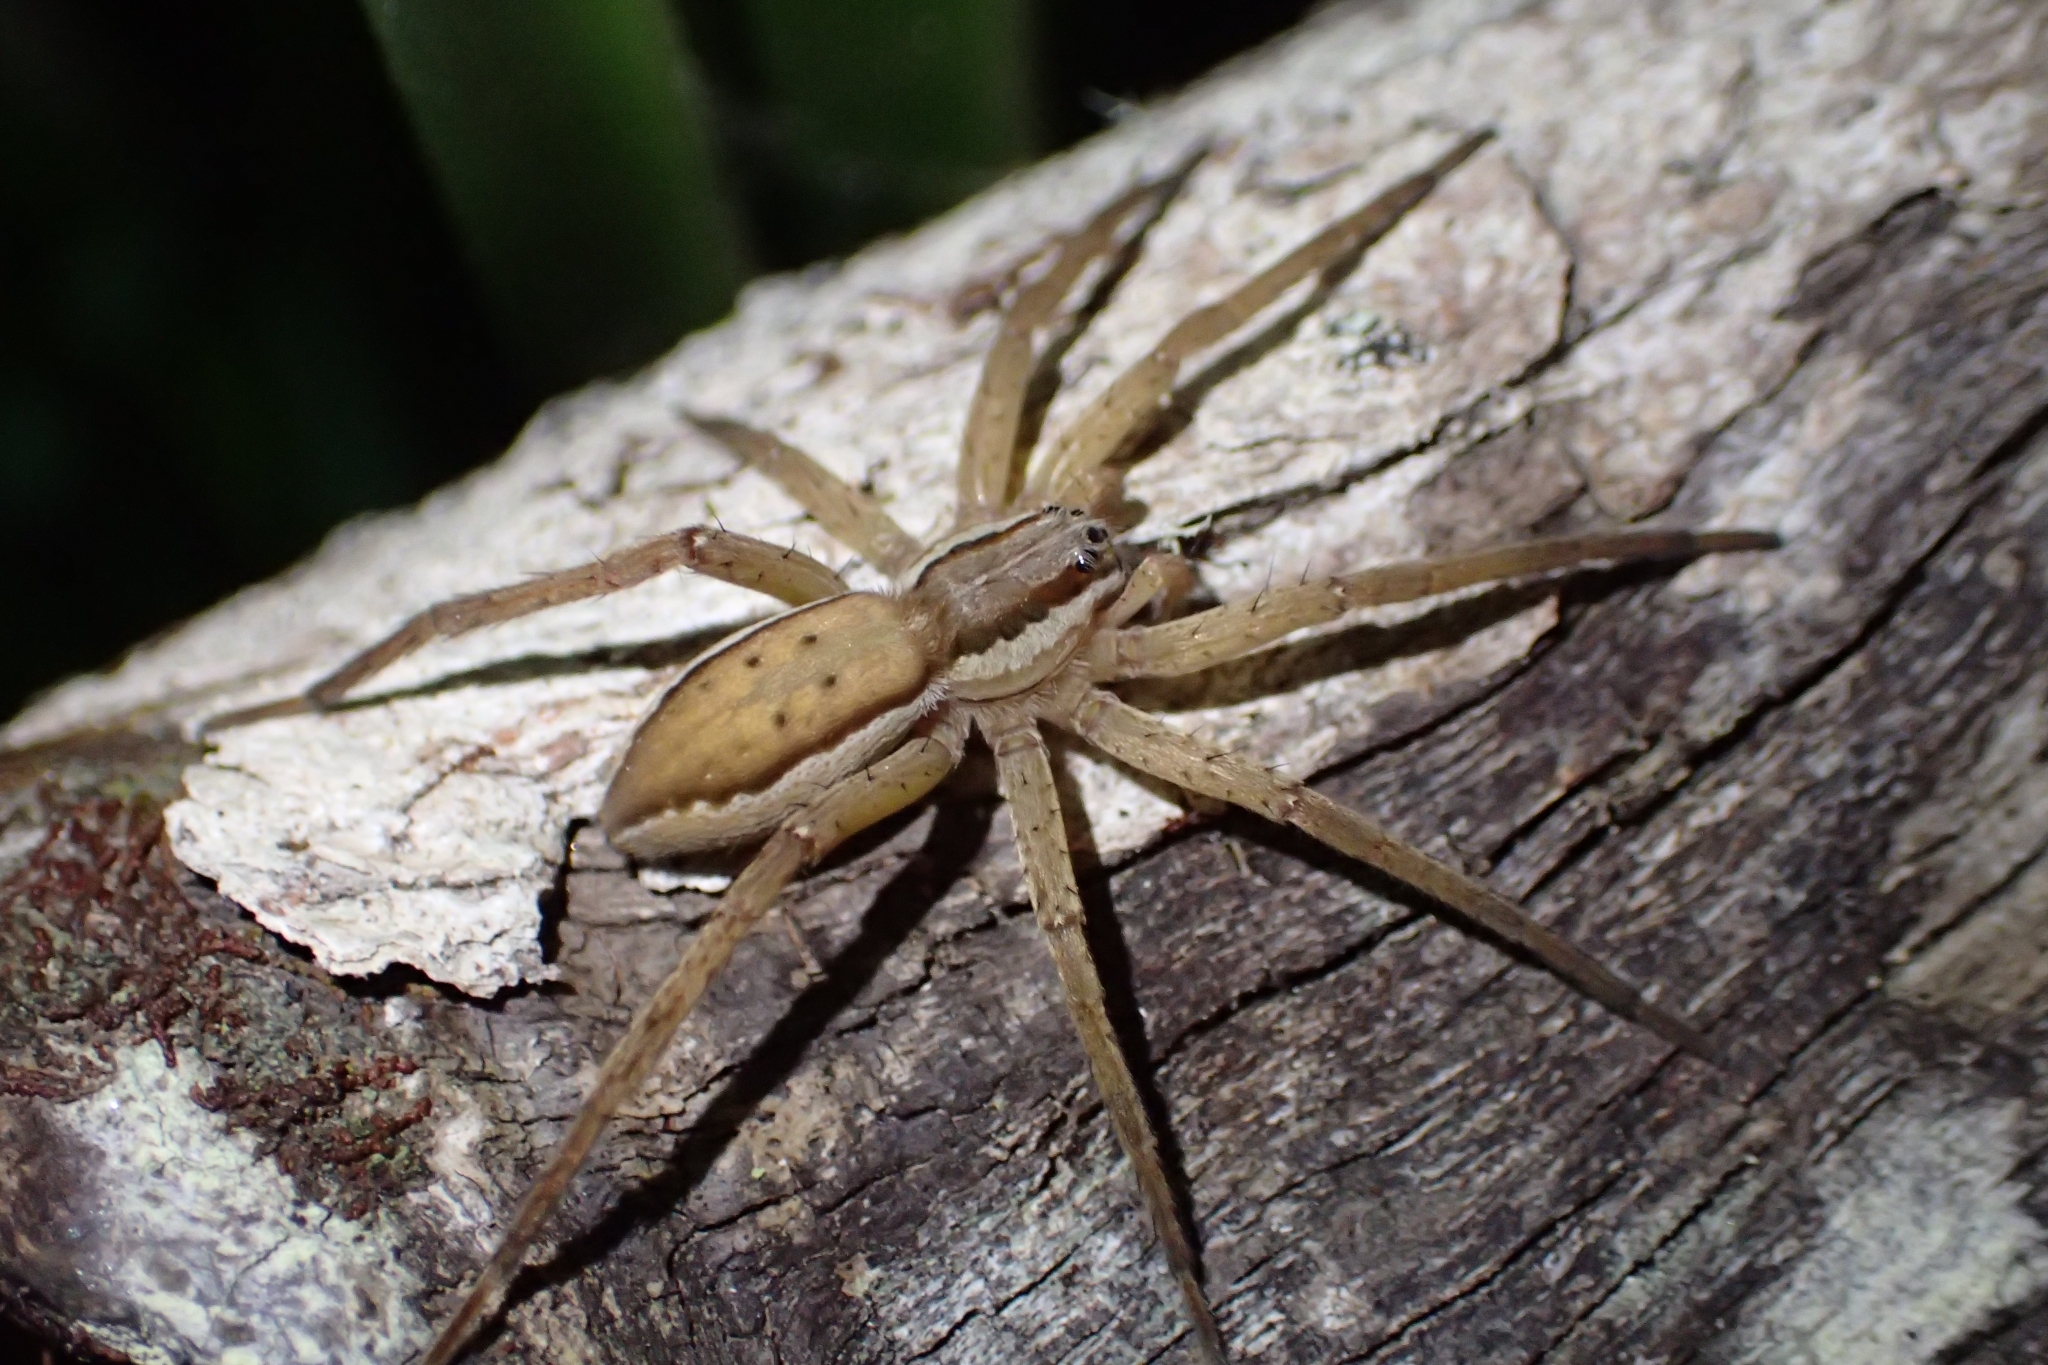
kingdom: Animalia
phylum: Arthropoda
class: Arachnida
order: Araneae
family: Pisauridae
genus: Dolomedes
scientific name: Dolomedes minor
